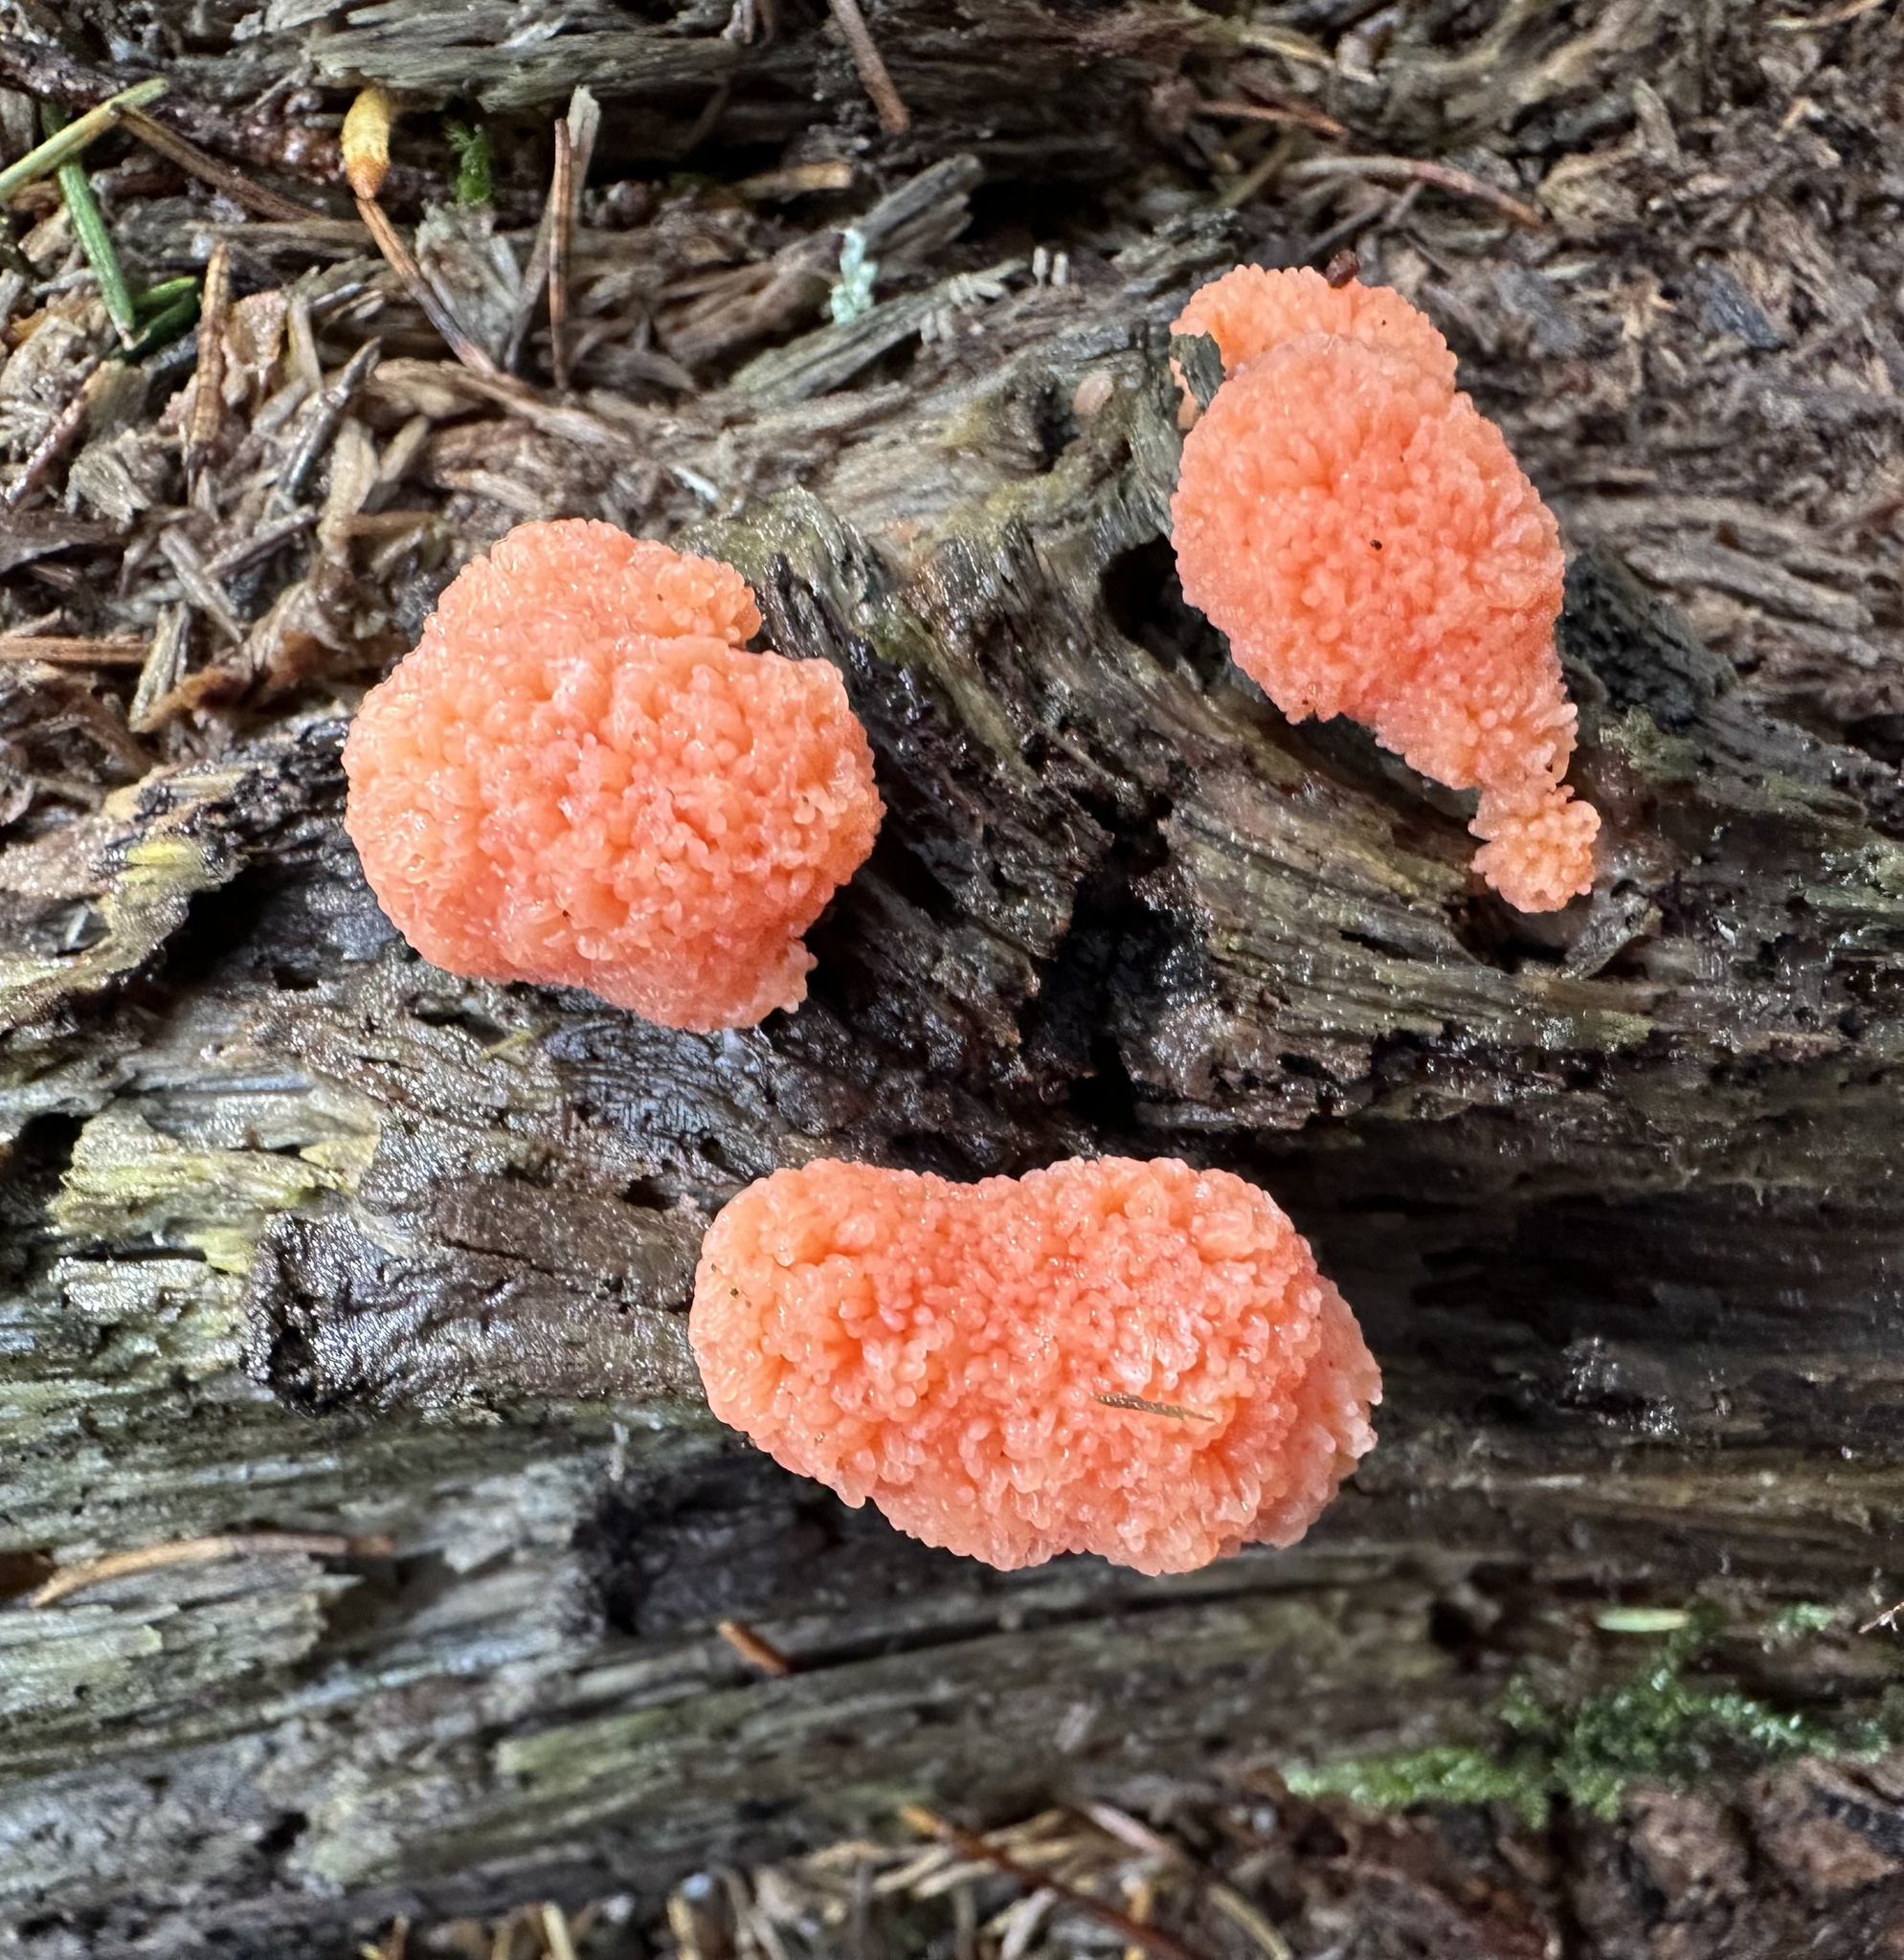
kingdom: Protozoa
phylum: Mycetozoa
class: Myxomycetes
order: Cribrariales
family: Tubiferaceae
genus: Tubifera
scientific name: Tubifera ferruginosa
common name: Red raspberry slime mold
